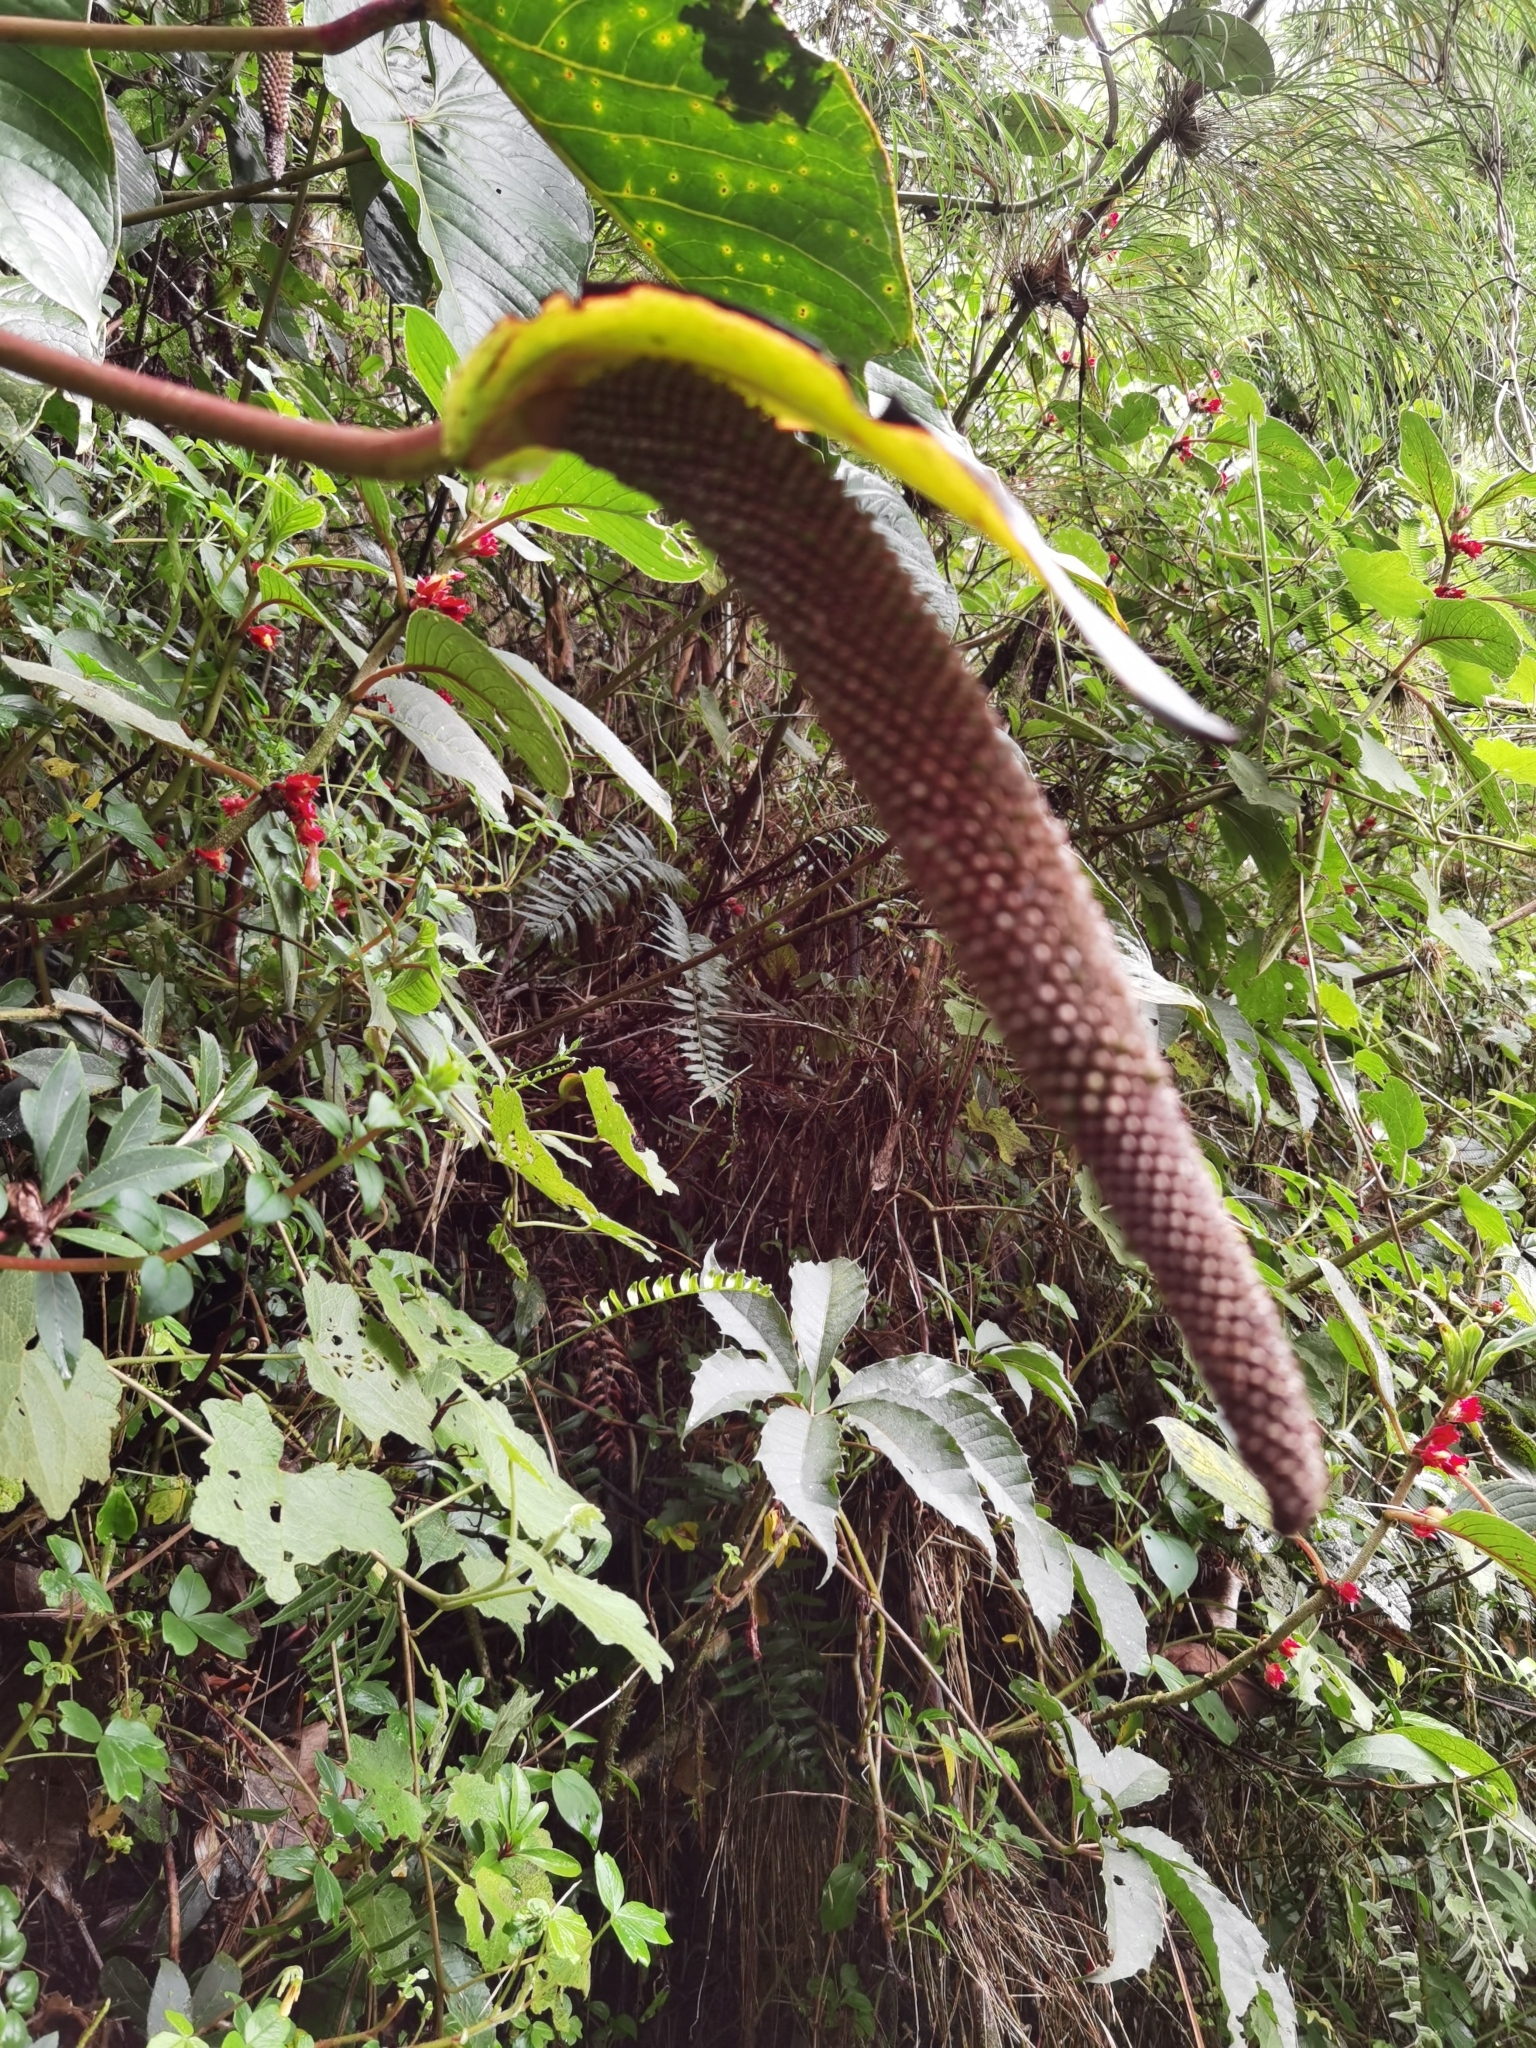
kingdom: Plantae
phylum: Tracheophyta
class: Liliopsida
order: Alismatales
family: Araceae
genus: Anthurium
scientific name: Anthurium concinnatum
